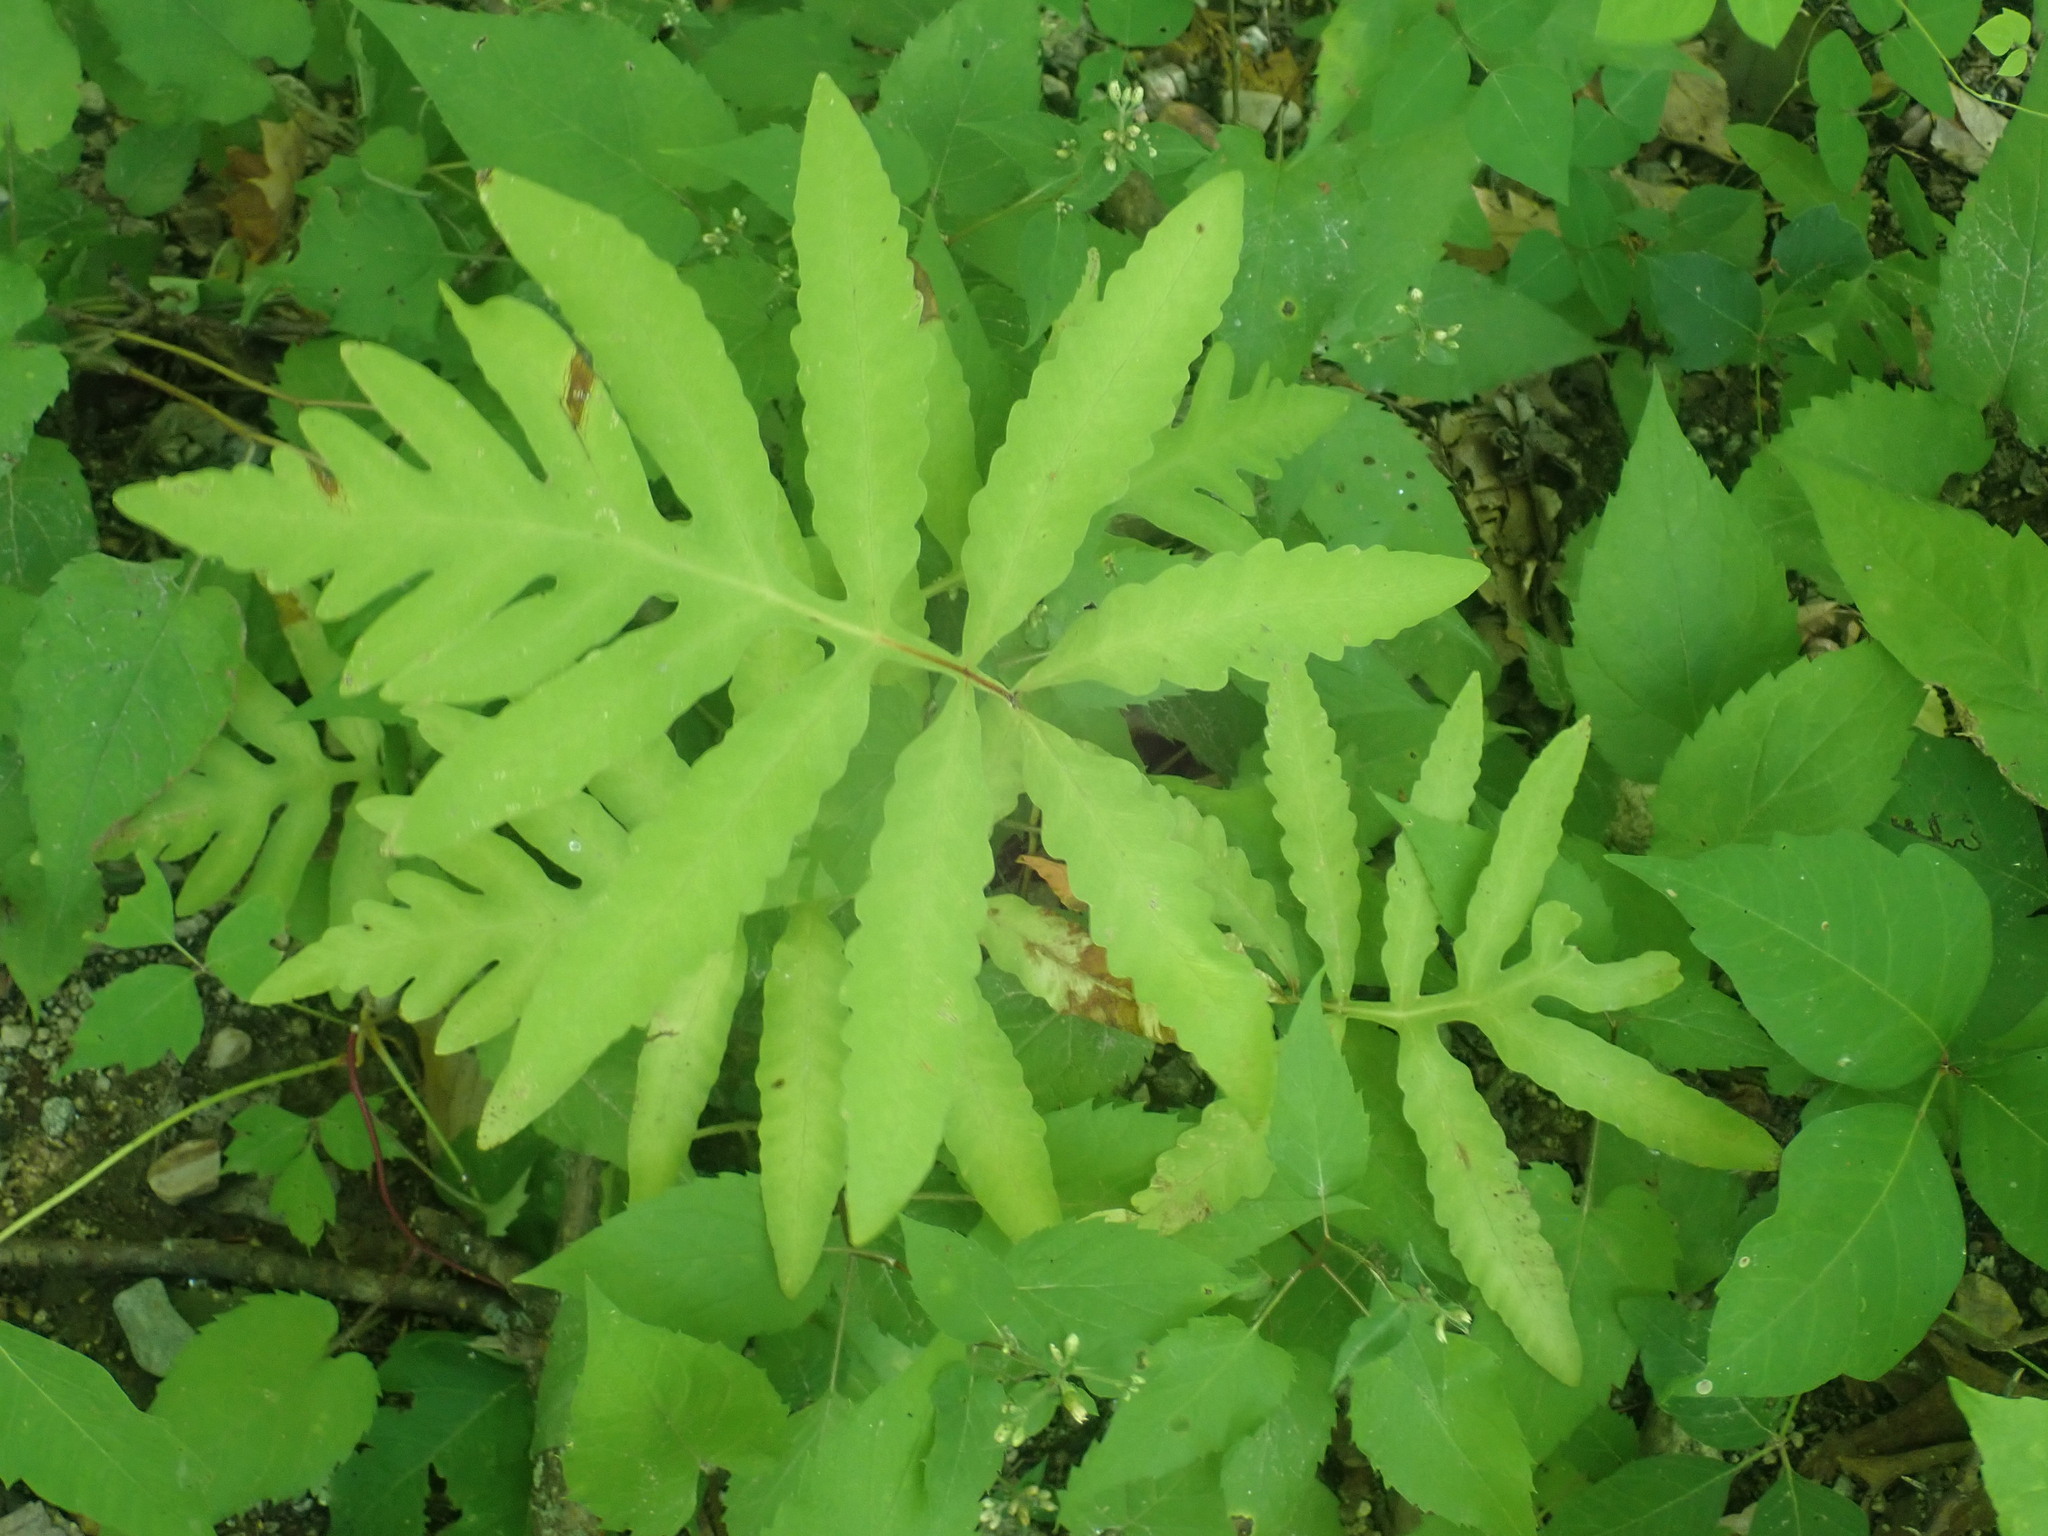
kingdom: Plantae
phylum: Tracheophyta
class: Polypodiopsida
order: Polypodiales
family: Onocleaceae
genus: Onoclea
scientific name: Onoclea sensibilis
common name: Sensitive fern
